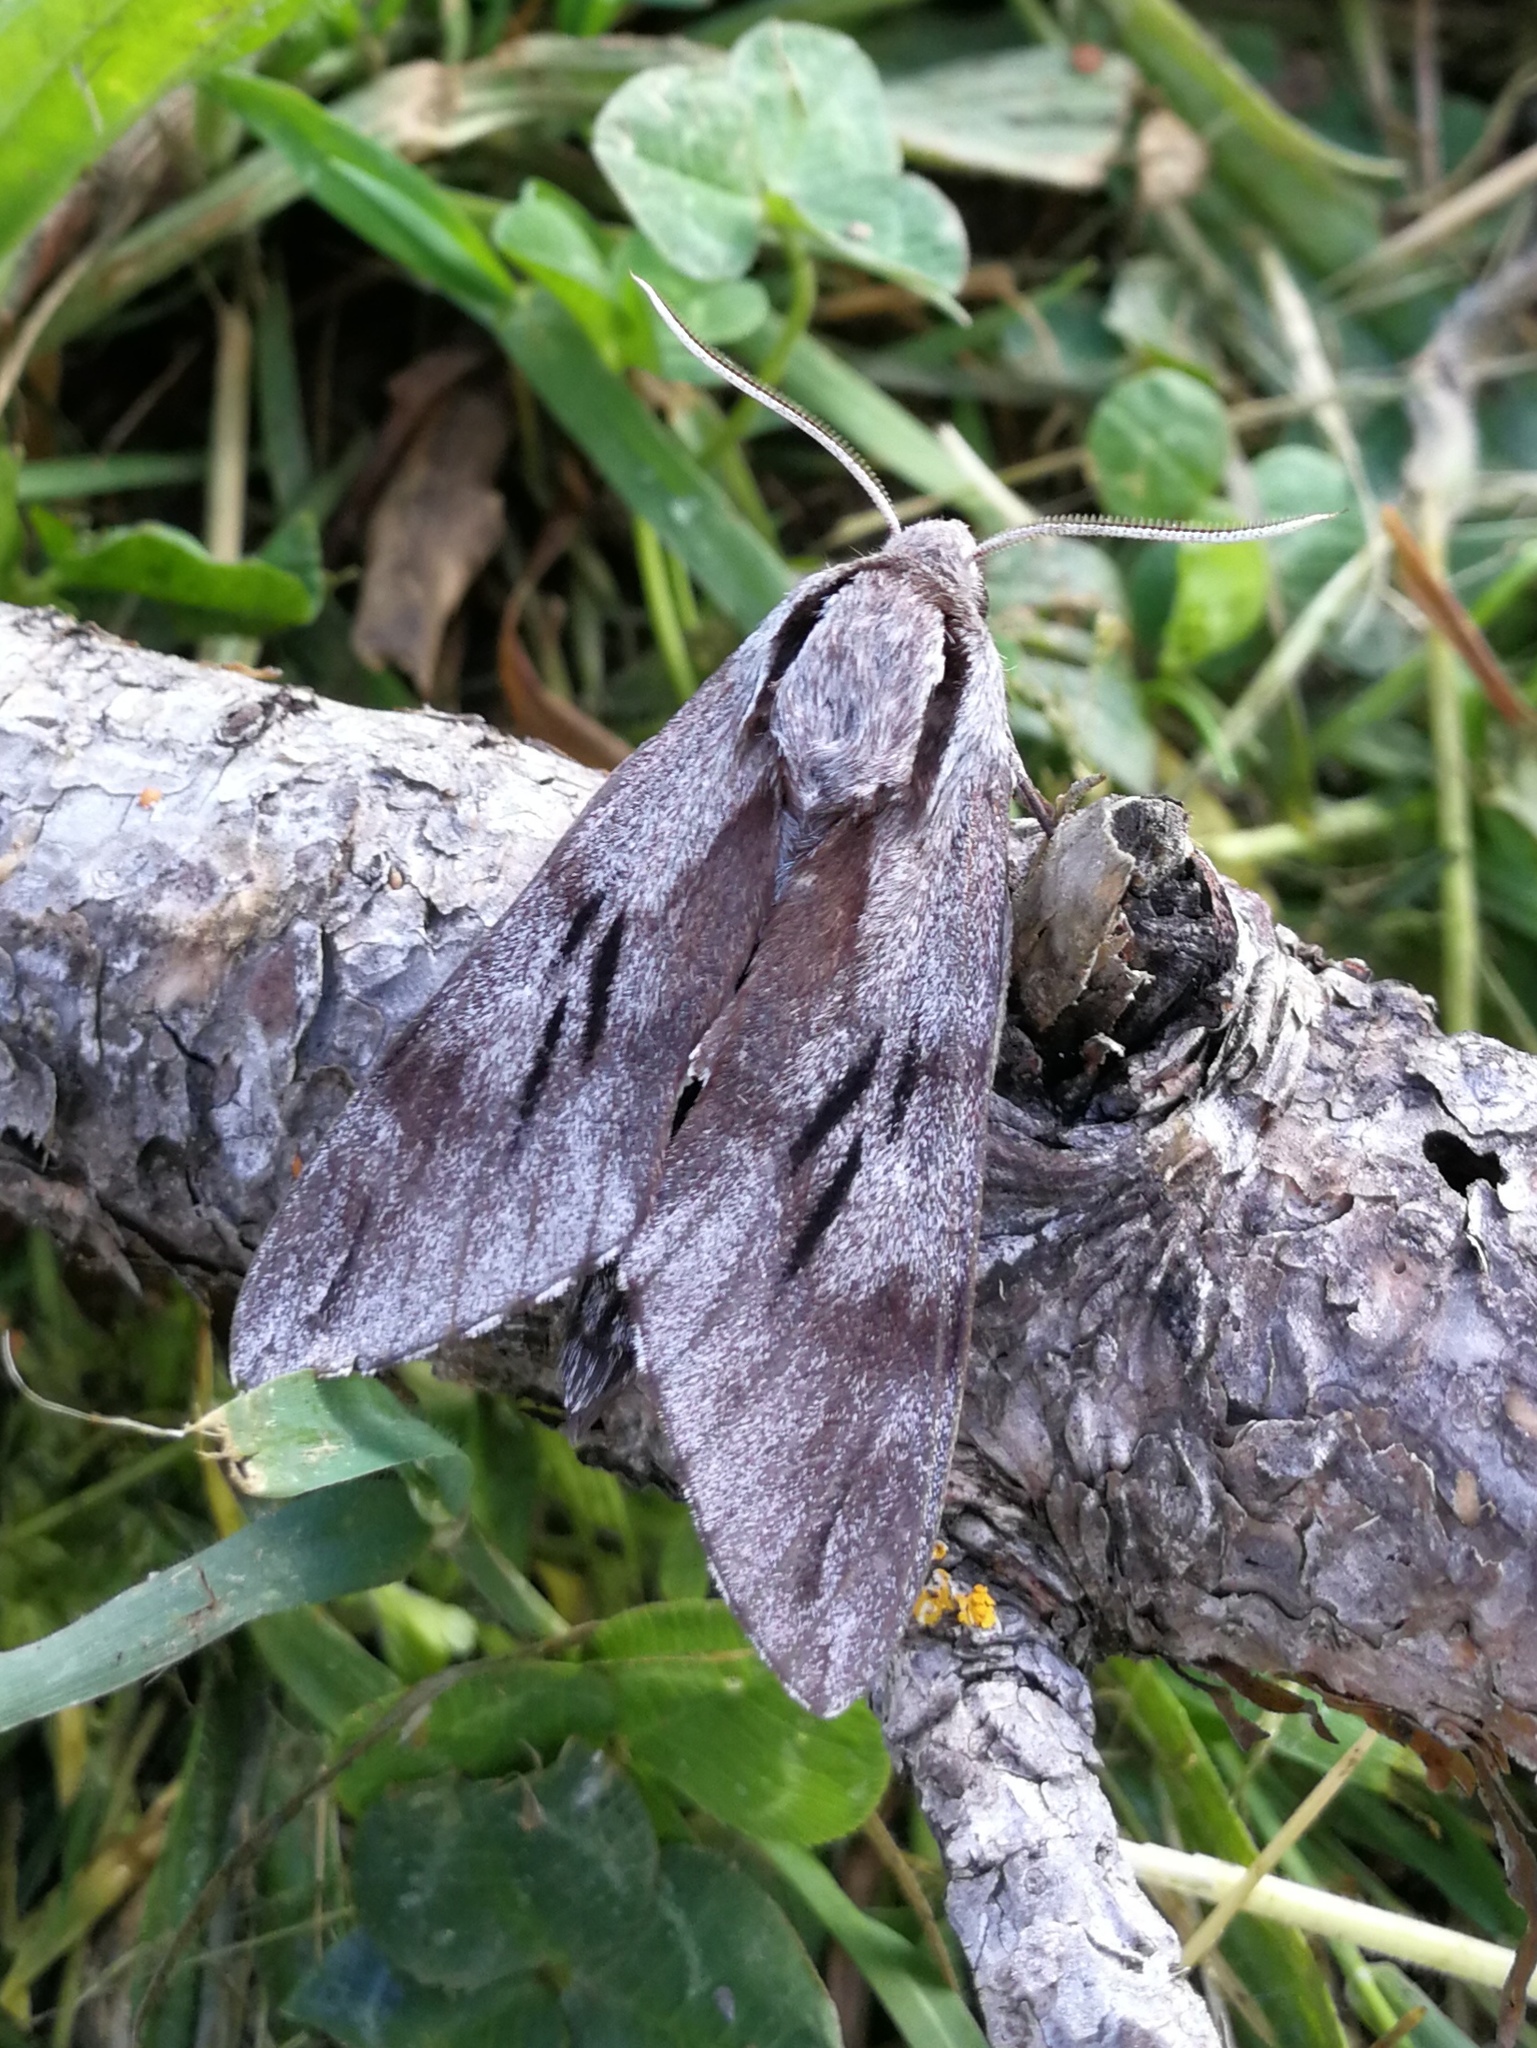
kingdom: Animalia
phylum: Arthropoda
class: Insecta
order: Lepidoptera
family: Sphingidae
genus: Sphinx
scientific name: Sphinx maurorum
